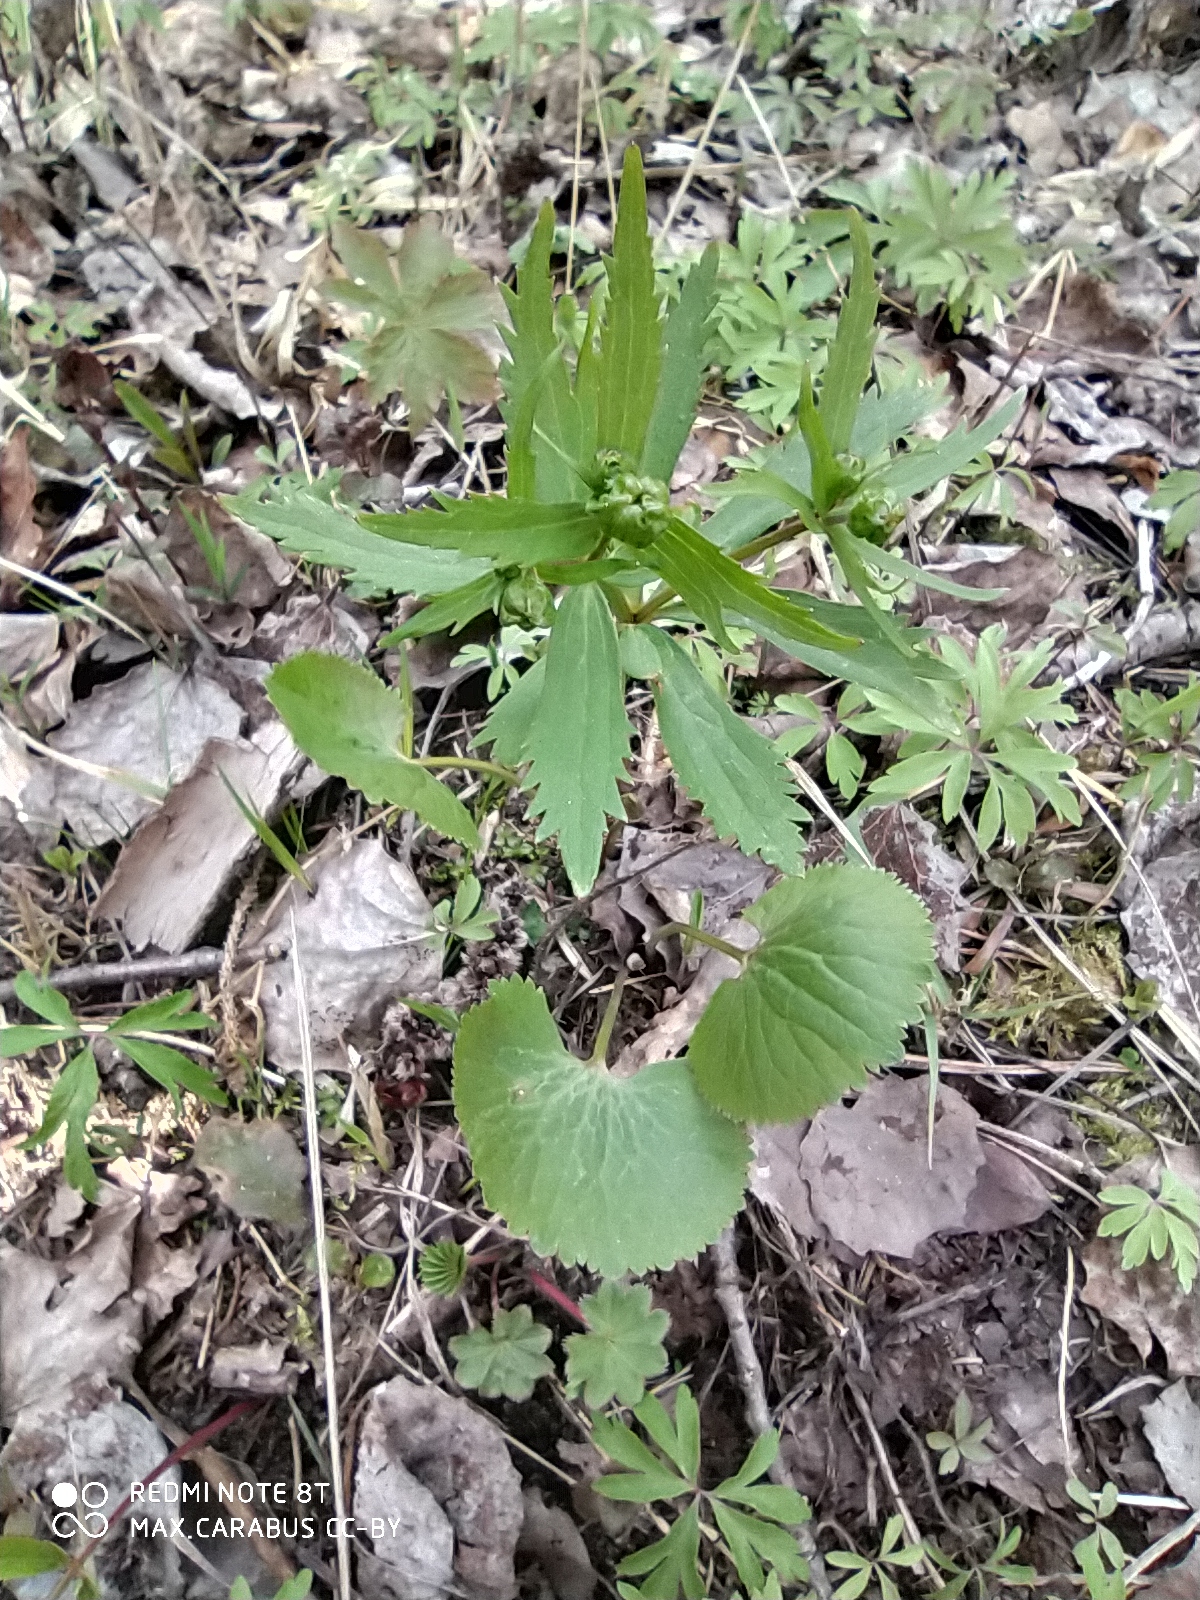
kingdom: Plantae
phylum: Tracheophyta
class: Magnoliopsida
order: Ranunculales
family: Ranunculaceae
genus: Ranunculus
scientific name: Ranunculus cassubicus
